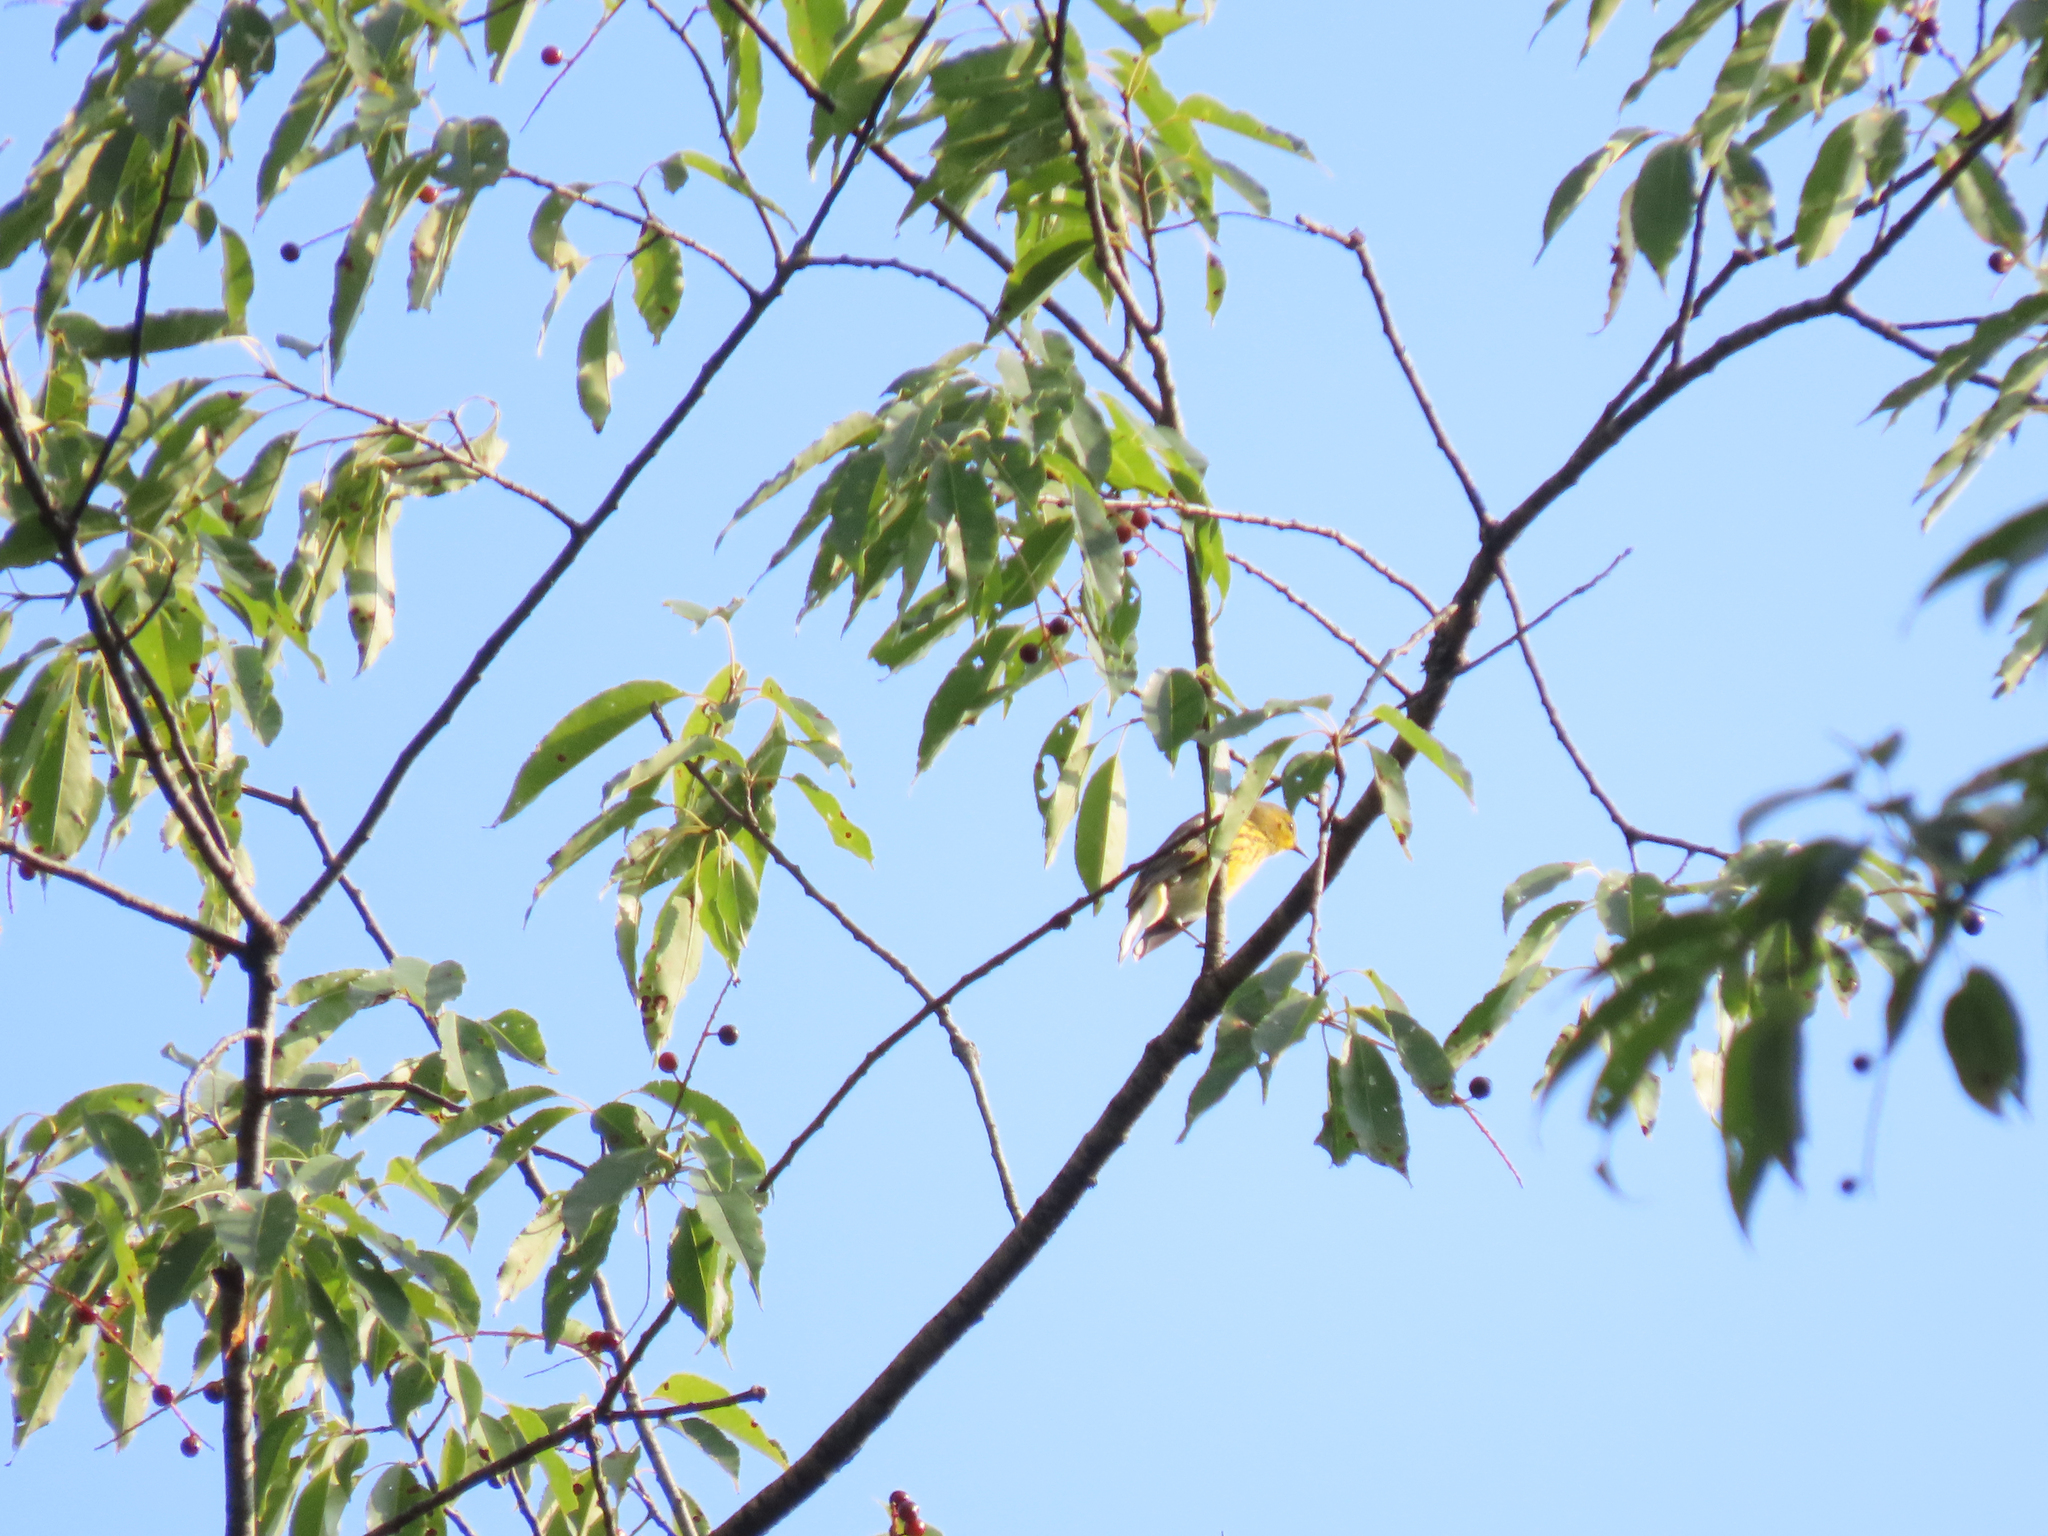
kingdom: Animalia
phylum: Chordata
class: Aves
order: Passeriformes
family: Parulidae
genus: Setophaga
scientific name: Setophaga tigrina
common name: Cape may warbler
